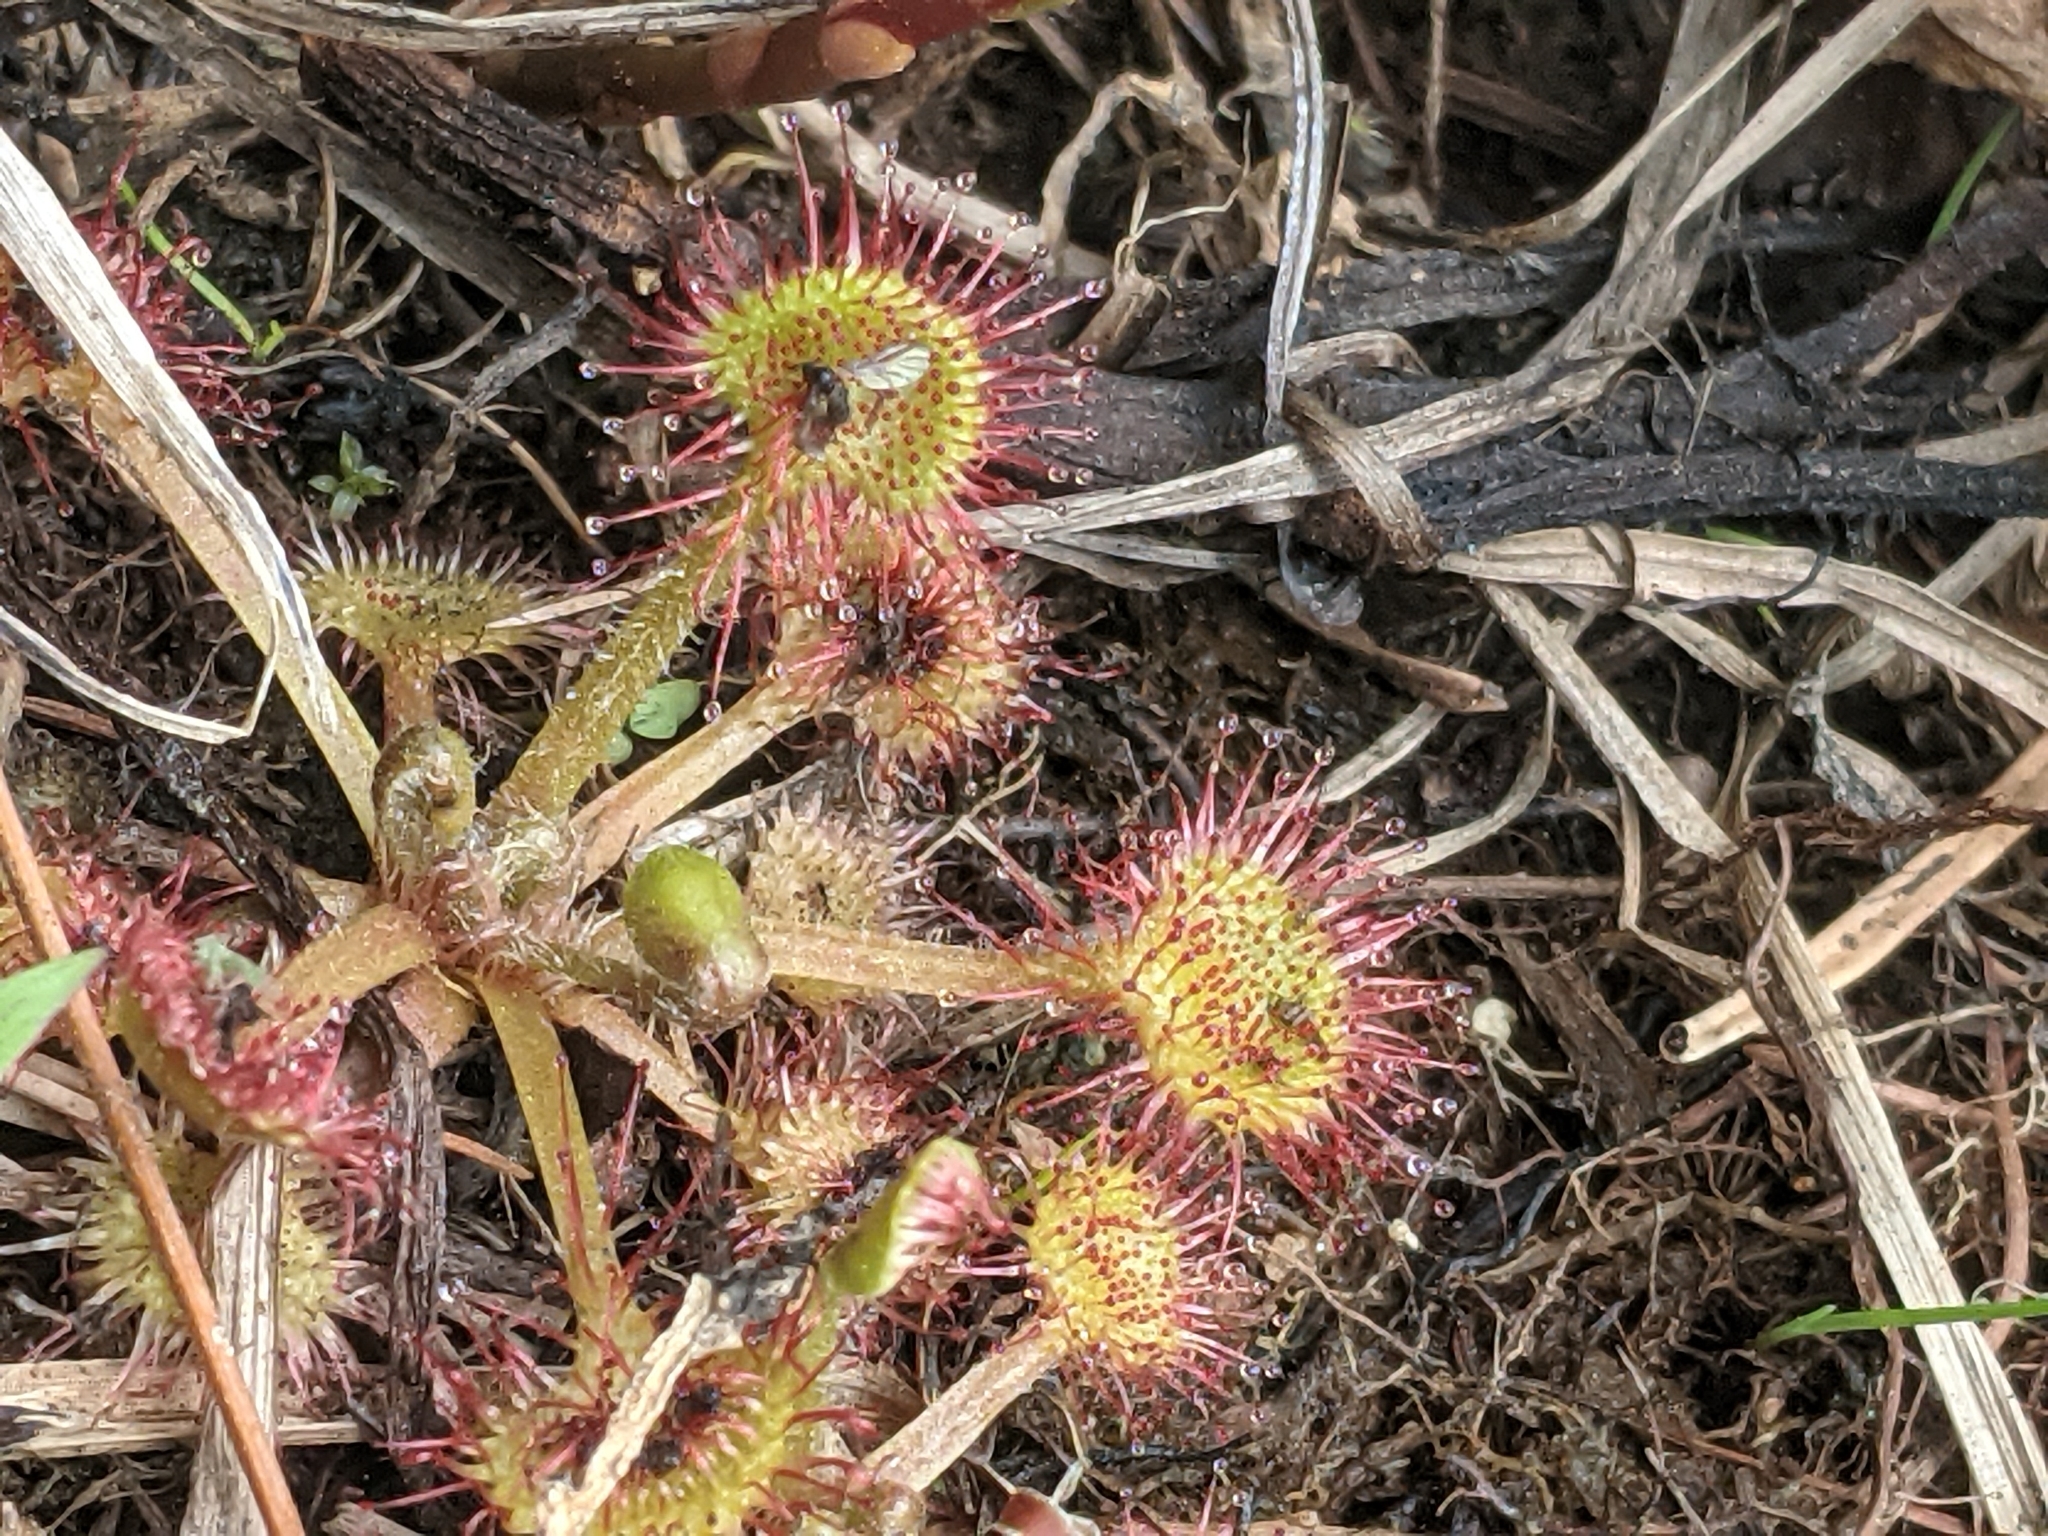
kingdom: Plantae
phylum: Tracheophyta
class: Magnoliopsida
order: Caryophyllales
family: Droseraceae
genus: Drosera
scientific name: Drosera rotundifolia
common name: Round-leaved sundew
